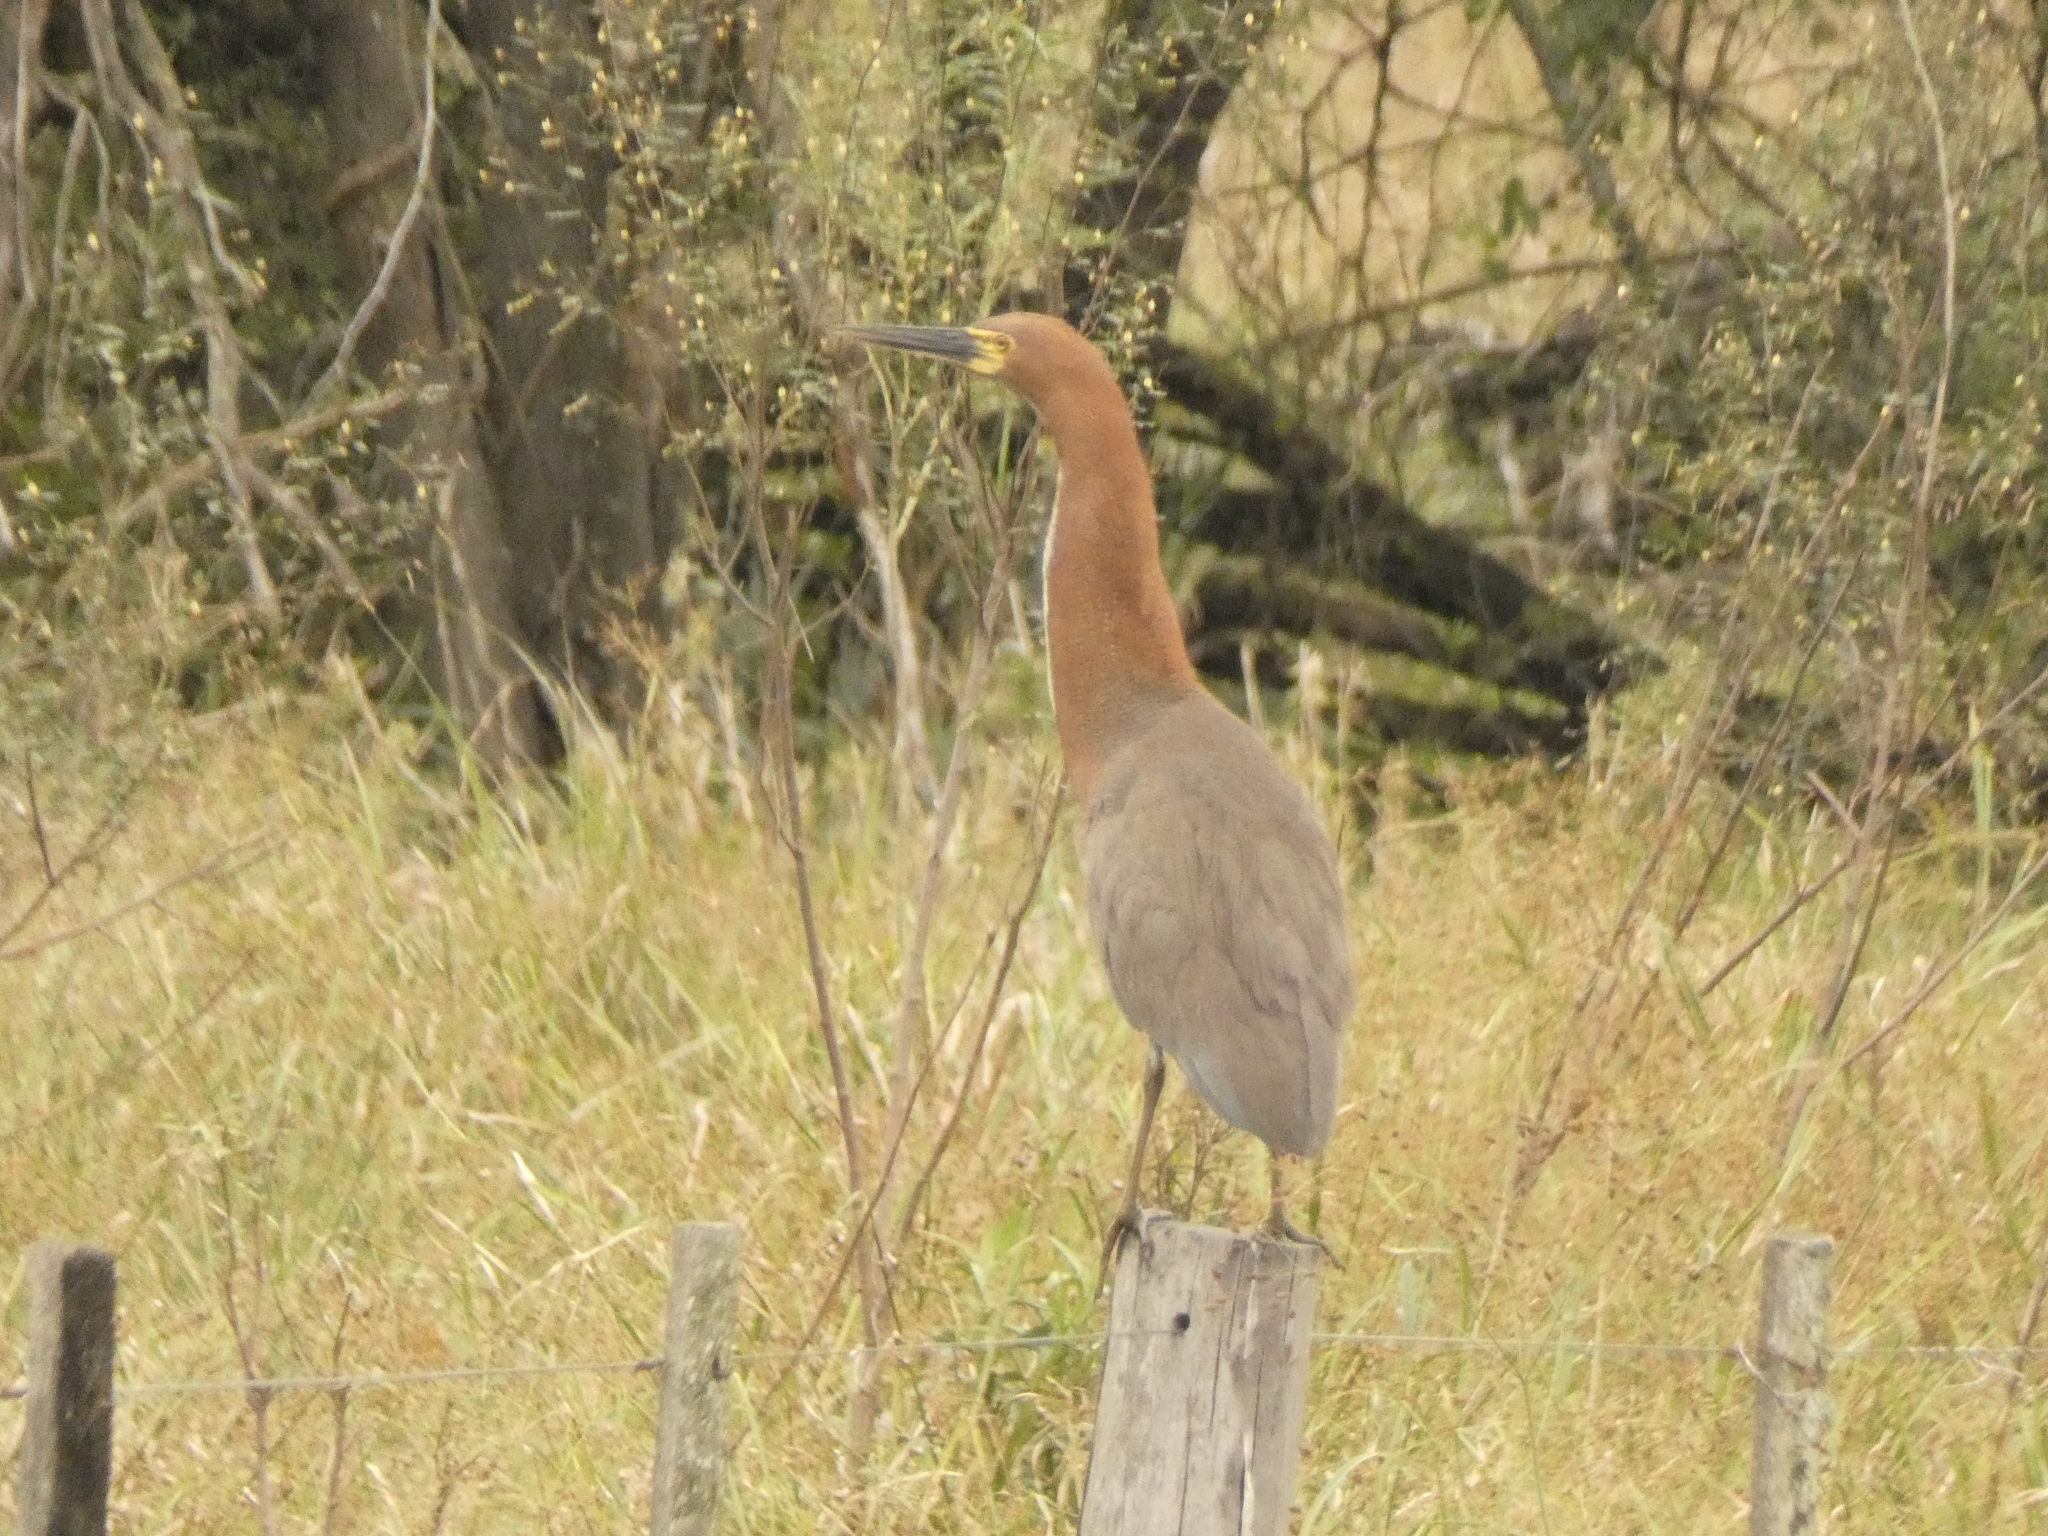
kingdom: Animalia
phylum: Chordata
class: Aves
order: Pelecaniformes
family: Ardeidae
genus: Tigrisoma
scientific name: Tigrisoma lineatum
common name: Rufescent tiger-heron
